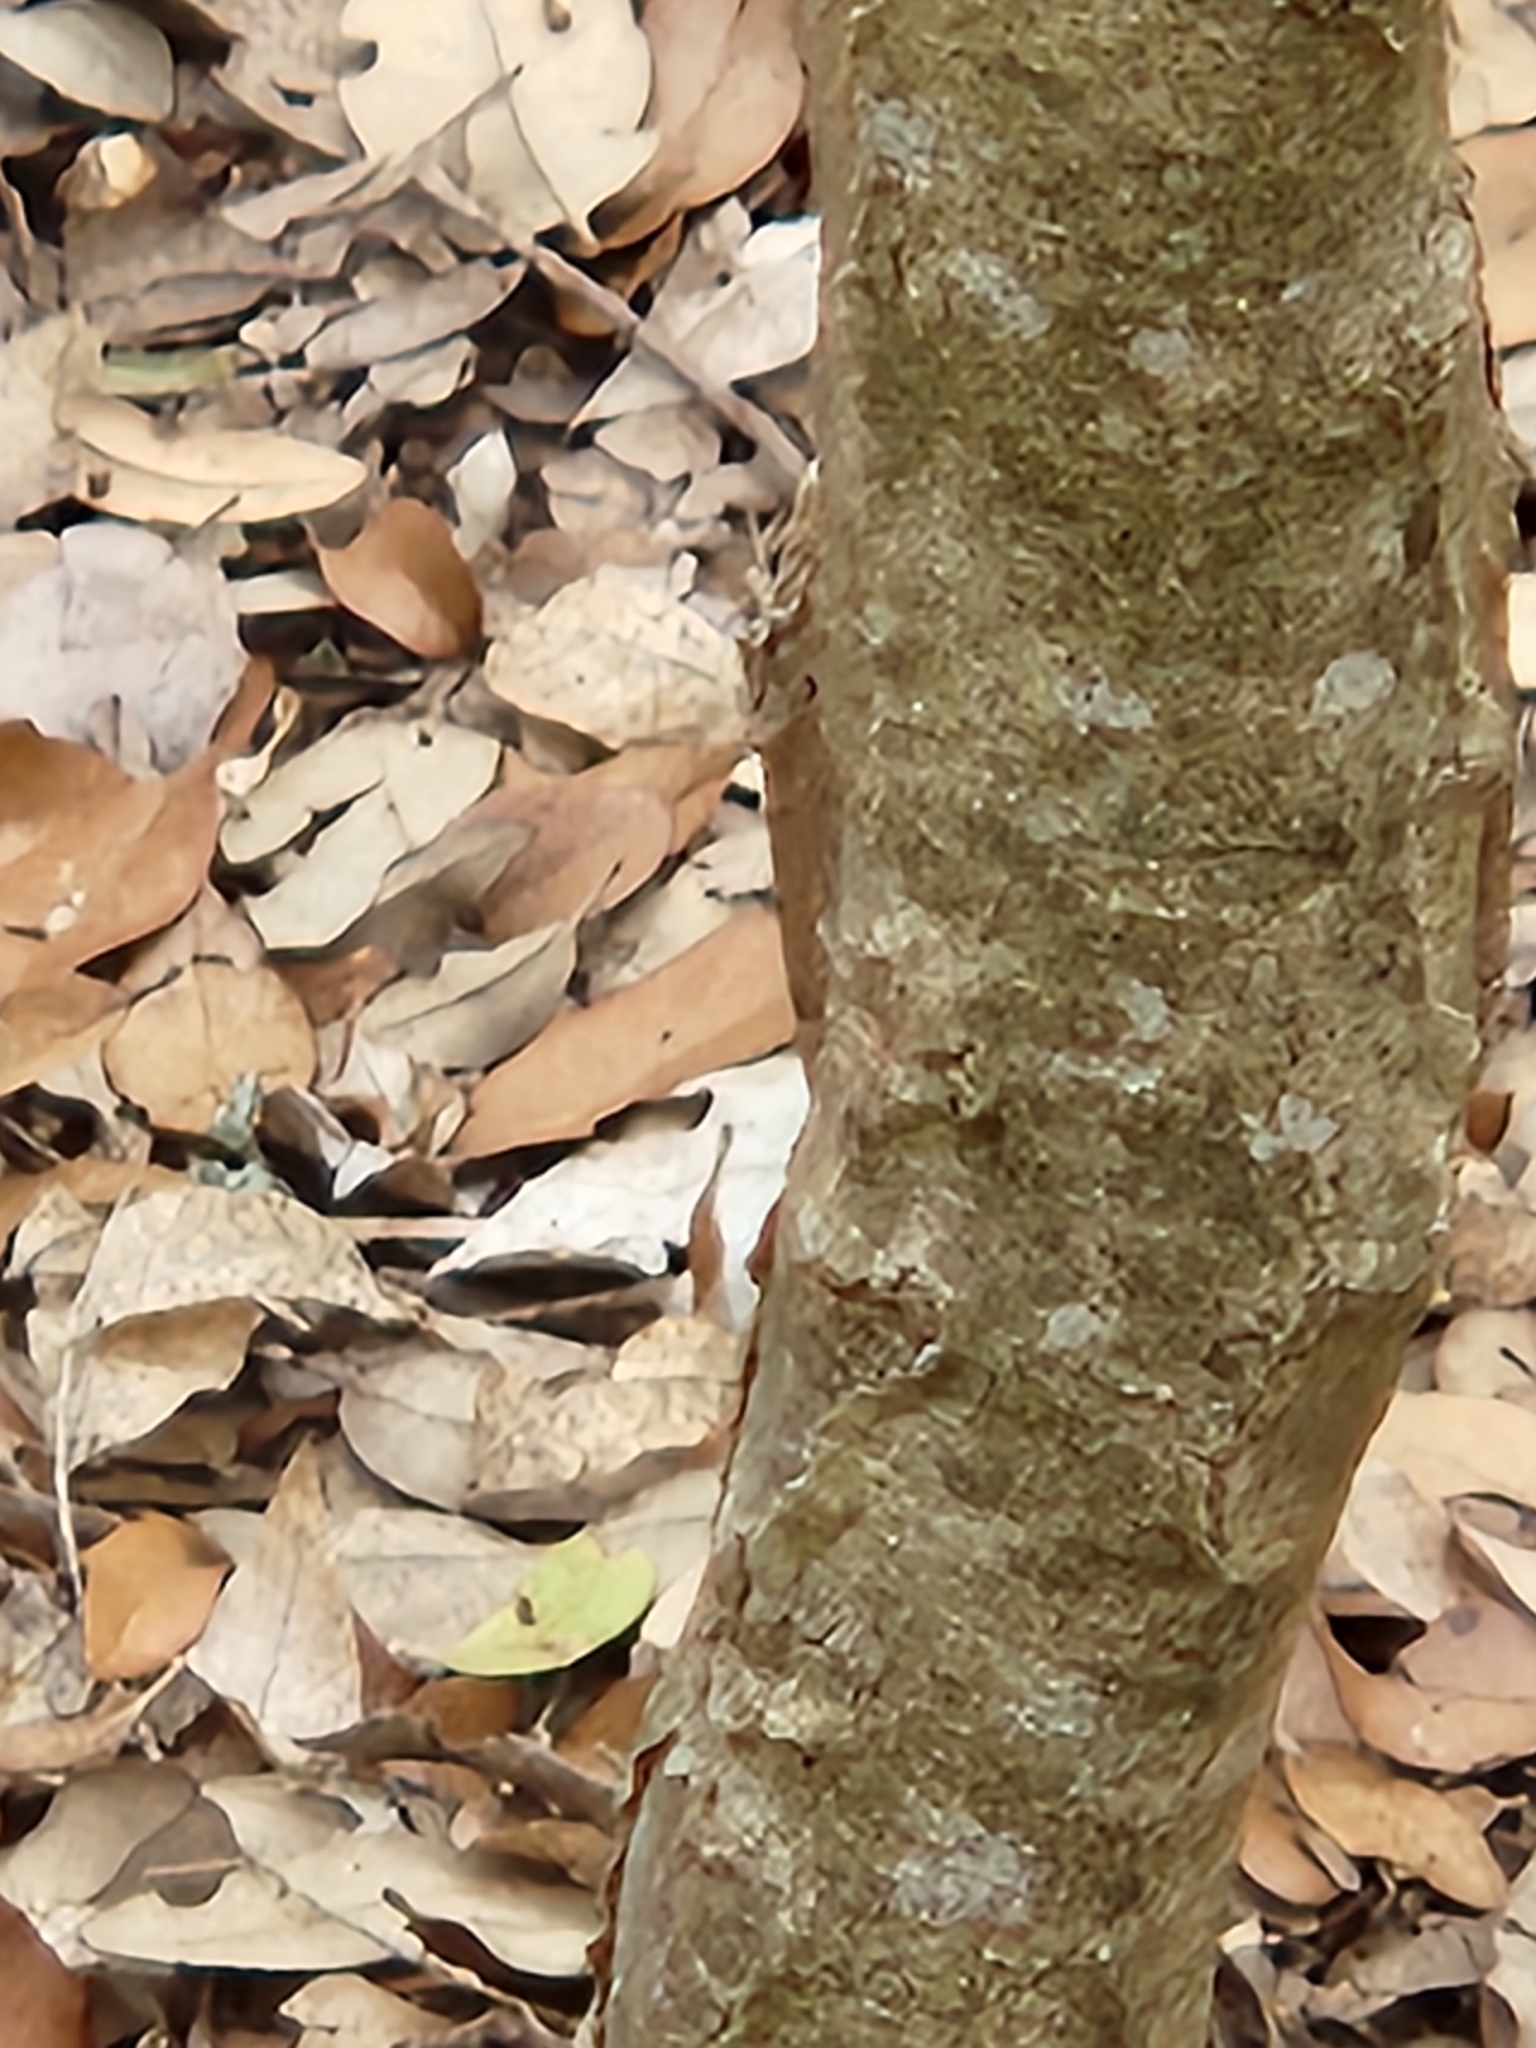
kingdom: Plantae
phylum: Tracheophyta
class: Magnoliopsida
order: Sapindales
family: Sapindaceae
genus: Sapindus
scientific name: Sapindus drummondii
